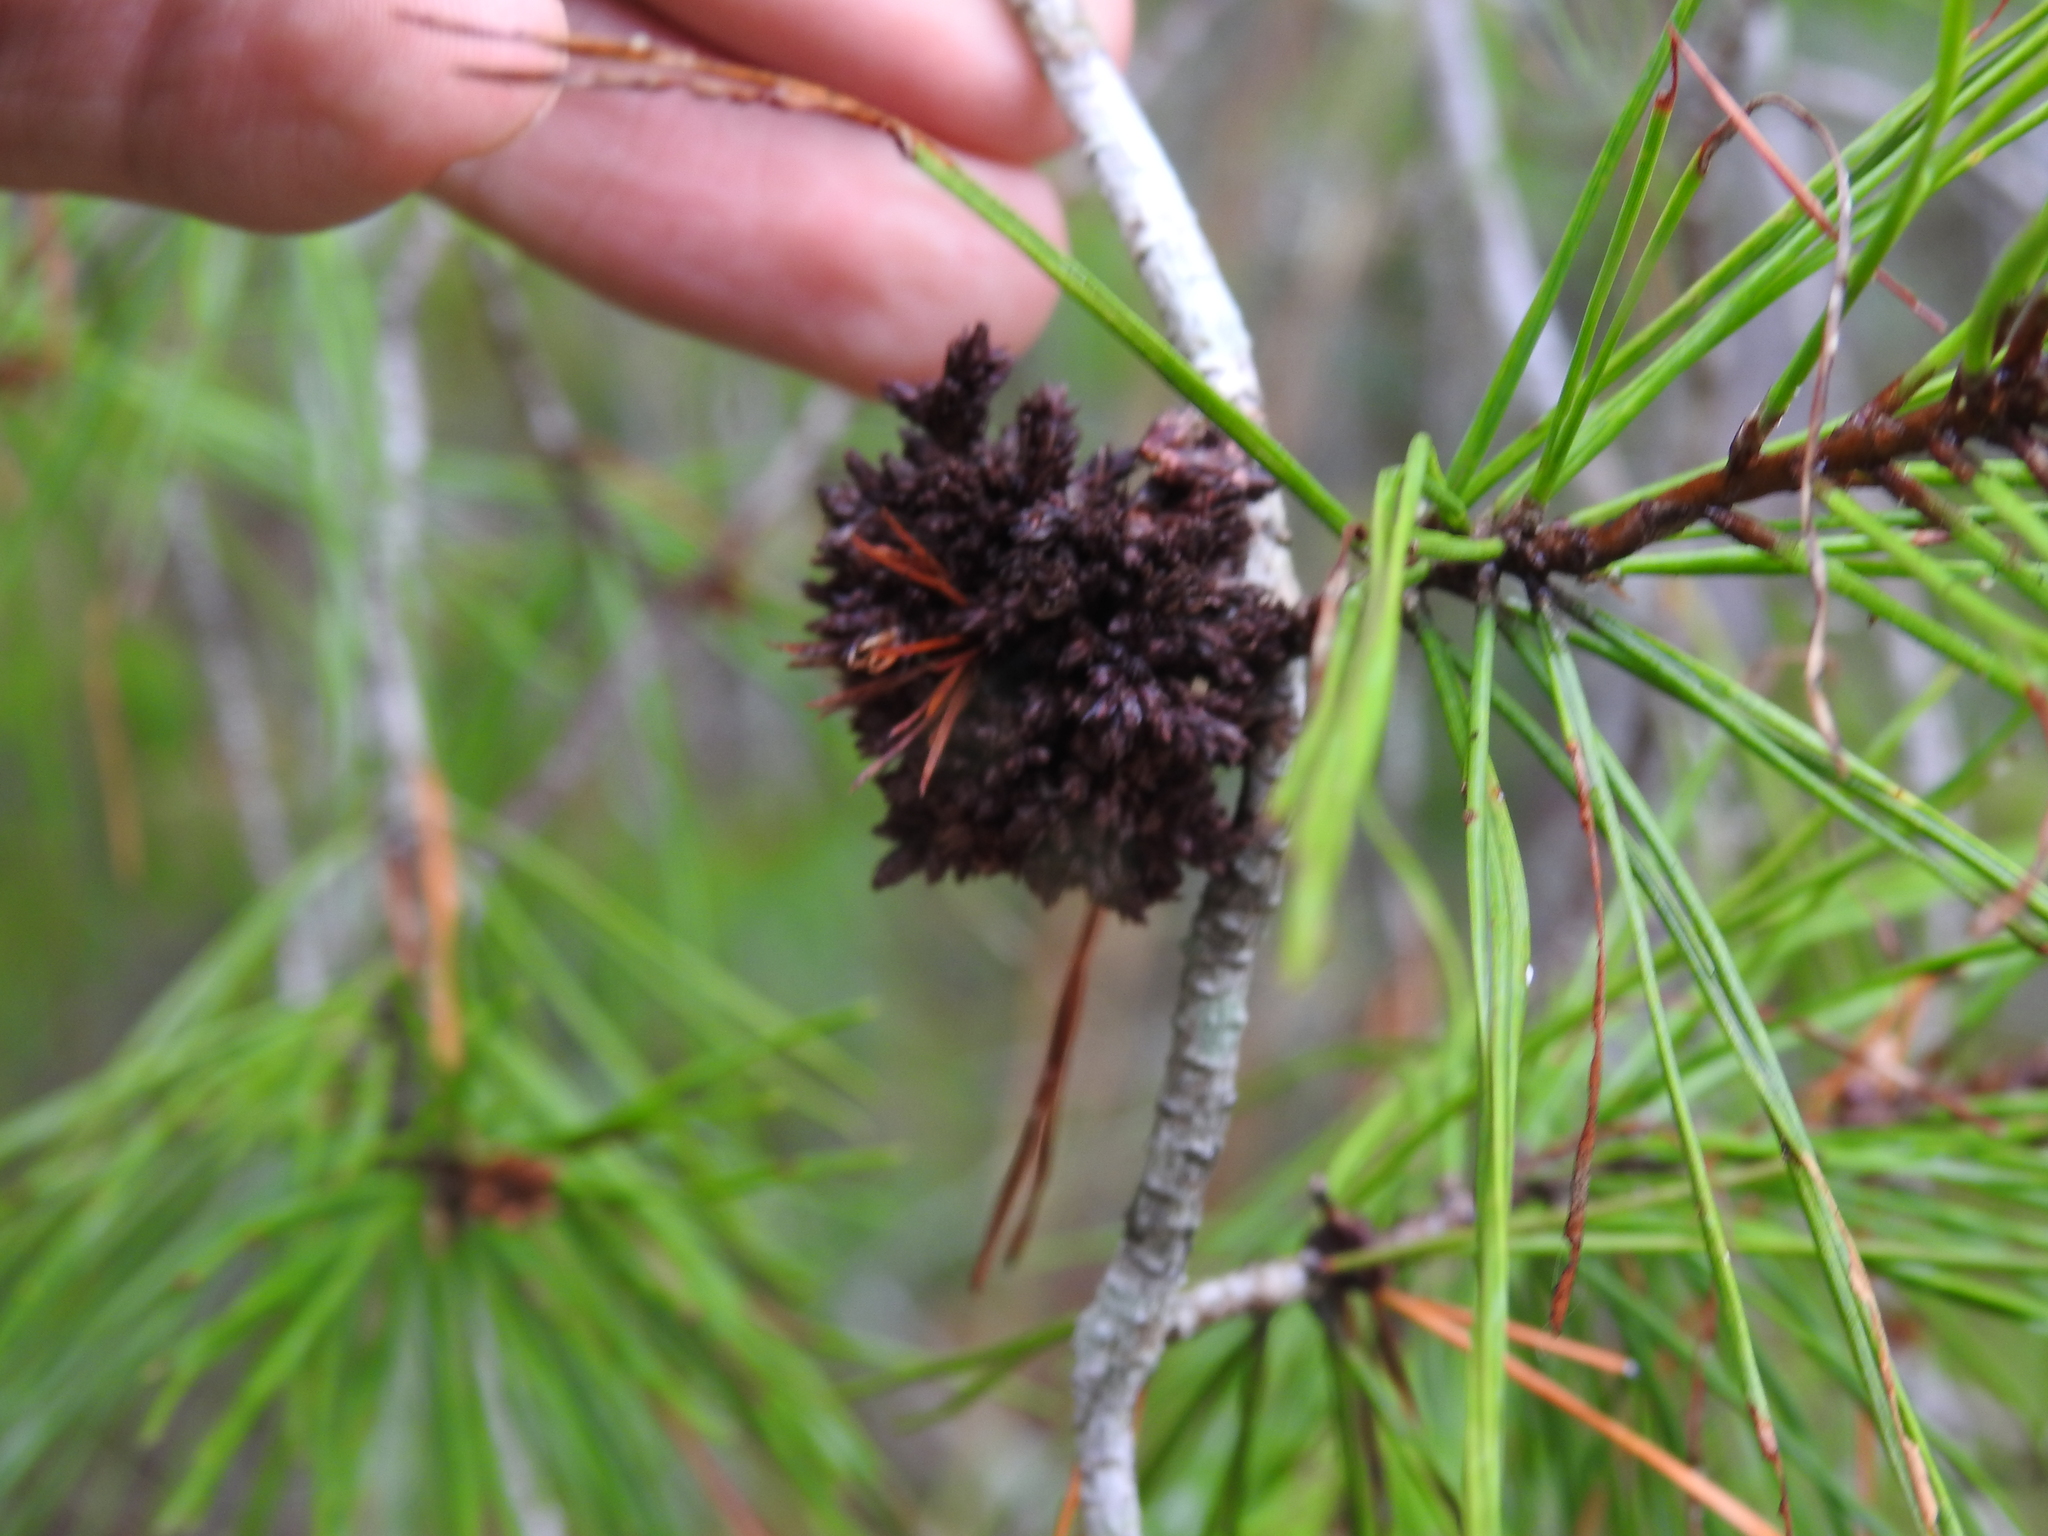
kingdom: Plantae
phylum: Tracheophyta
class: Pinopsida
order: Pinales
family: Pinaceae
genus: Pinus
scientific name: Pinus clausa
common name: Sand pine
